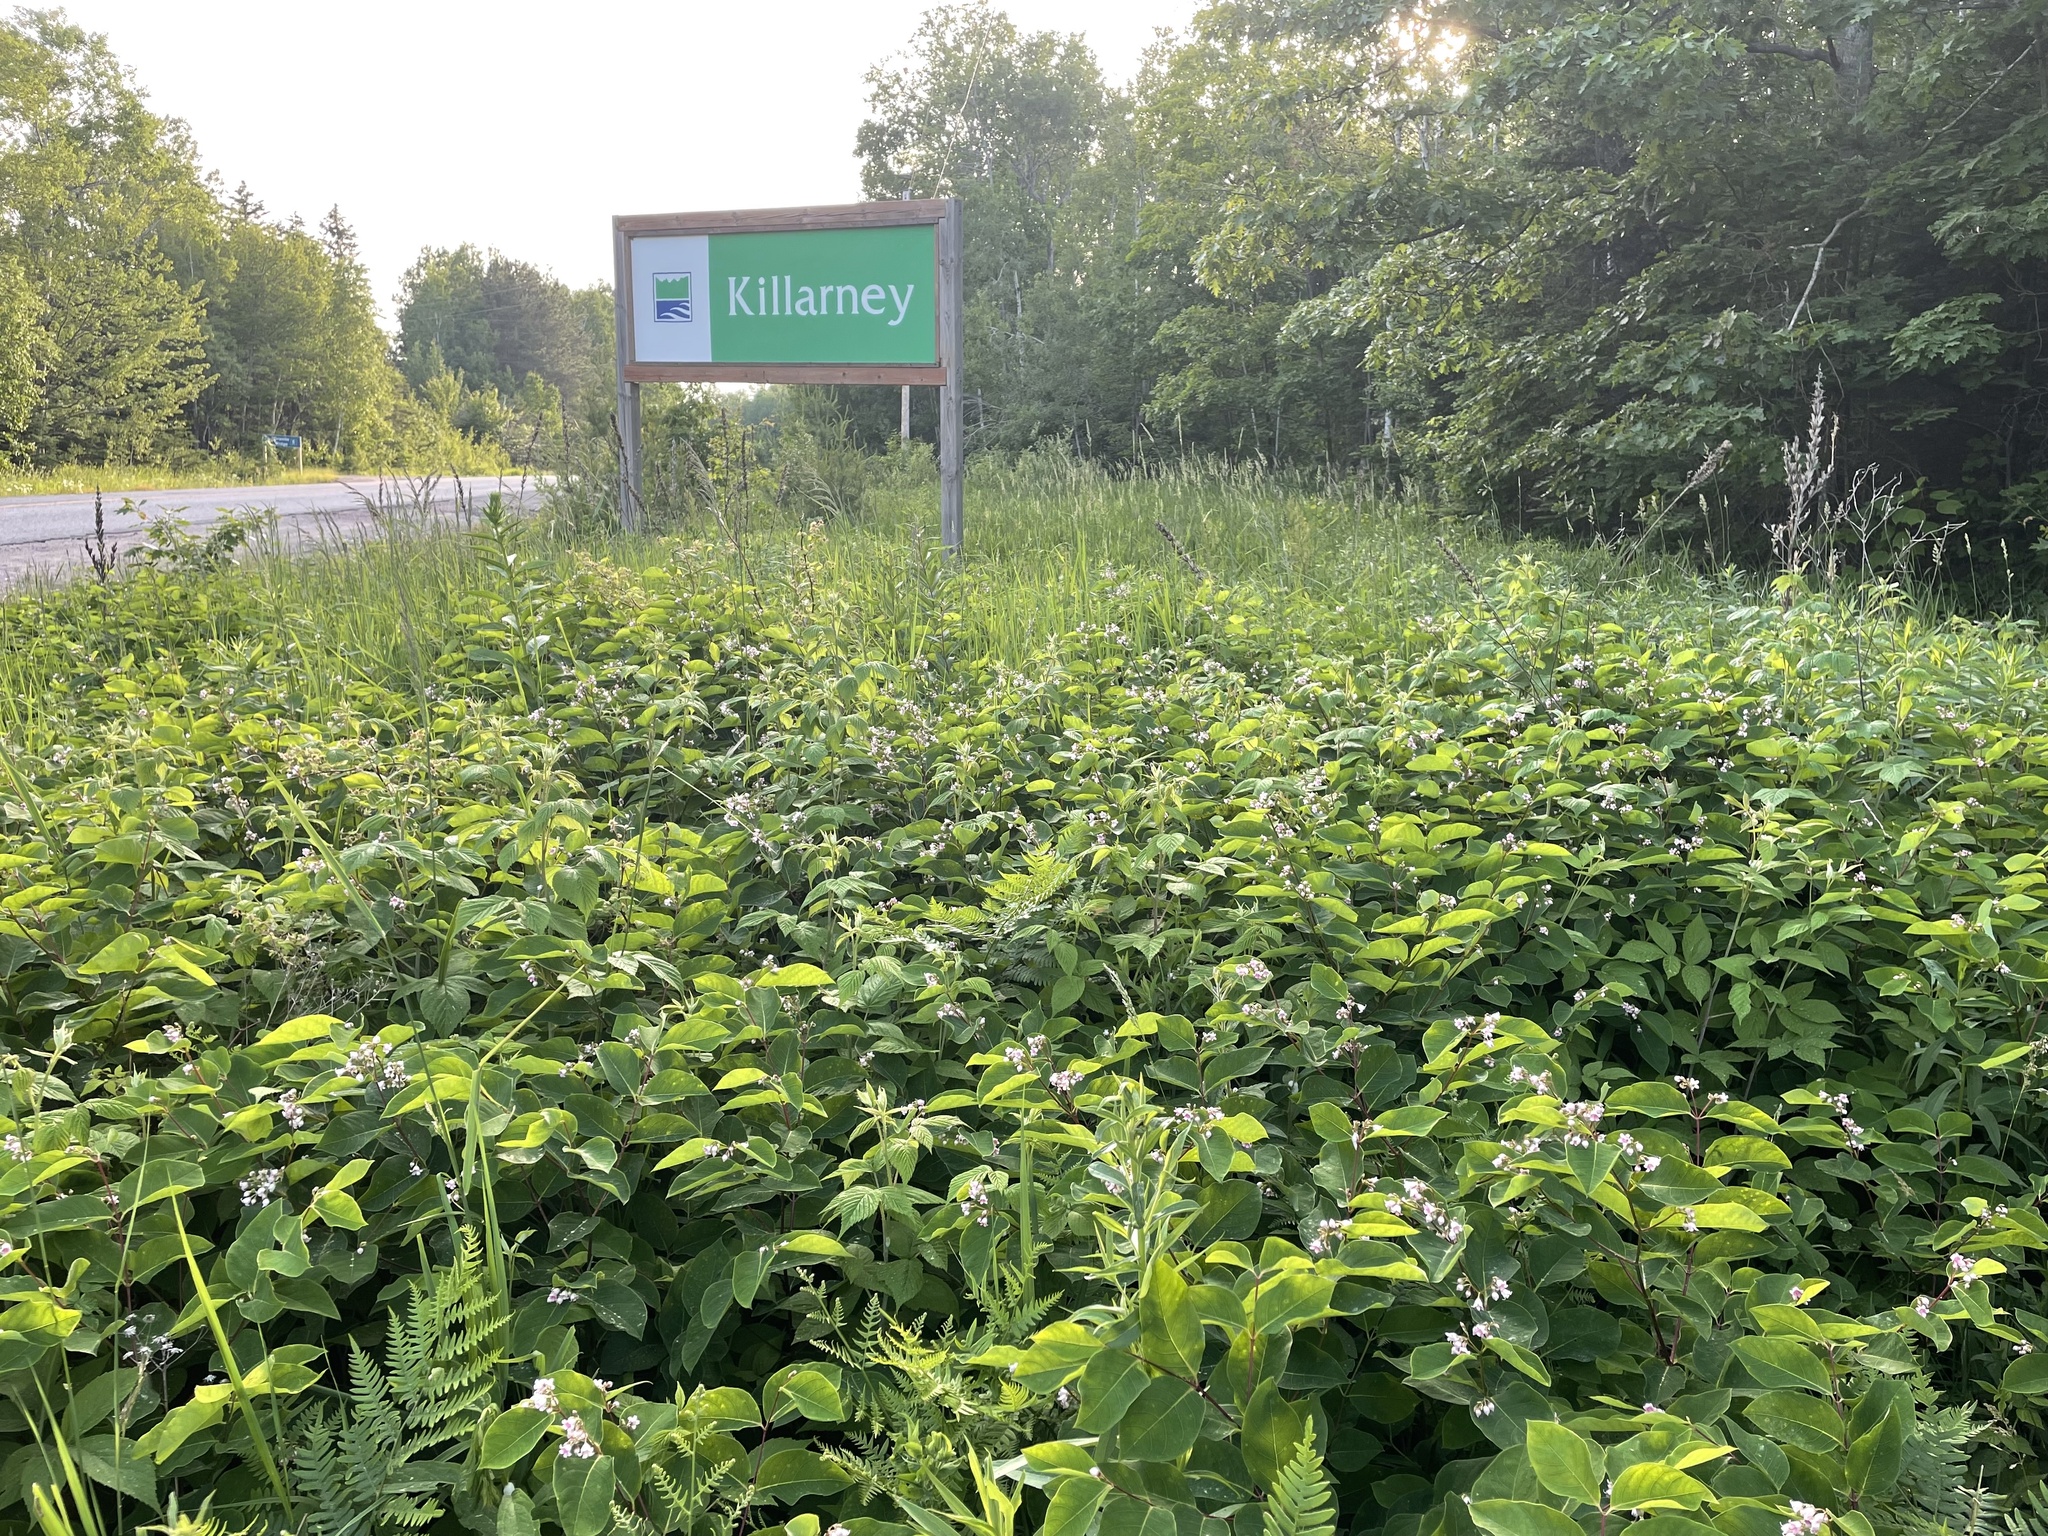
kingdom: Plantae
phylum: Tracheophyta
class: Magnoliopsida
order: Gentianales
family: Apocynaceae
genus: Apocynum
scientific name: Apocynum androsaemifolium
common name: Spreading dogbane
